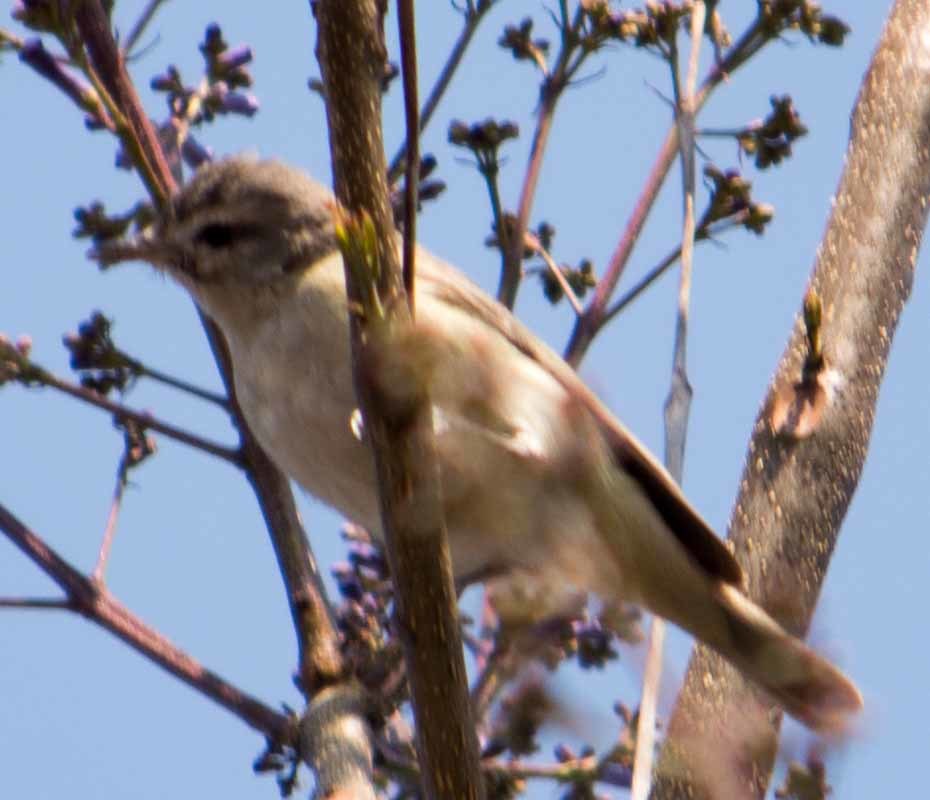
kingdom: Animalia
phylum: Chordata
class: Aves
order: Passeriformes
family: Vireonidae
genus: Vireo
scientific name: Vireo gilvus
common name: Warbling vireo
